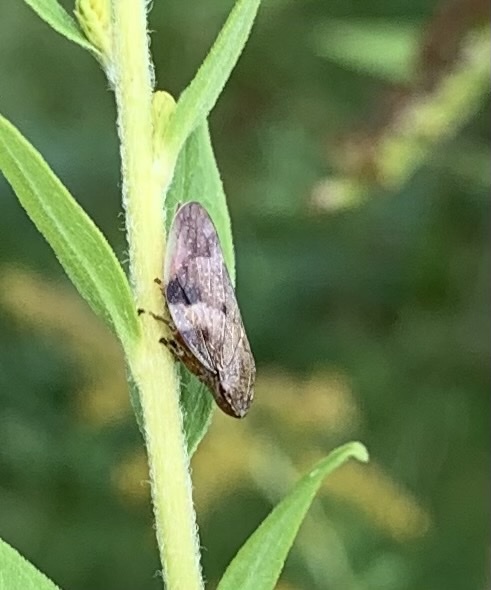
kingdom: Animalia
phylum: Arthropoda
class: Insecta
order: Hemiptera
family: Aphrophoridae
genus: Aphrophora
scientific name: Aphrophora alni
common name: European alder spittlebug
